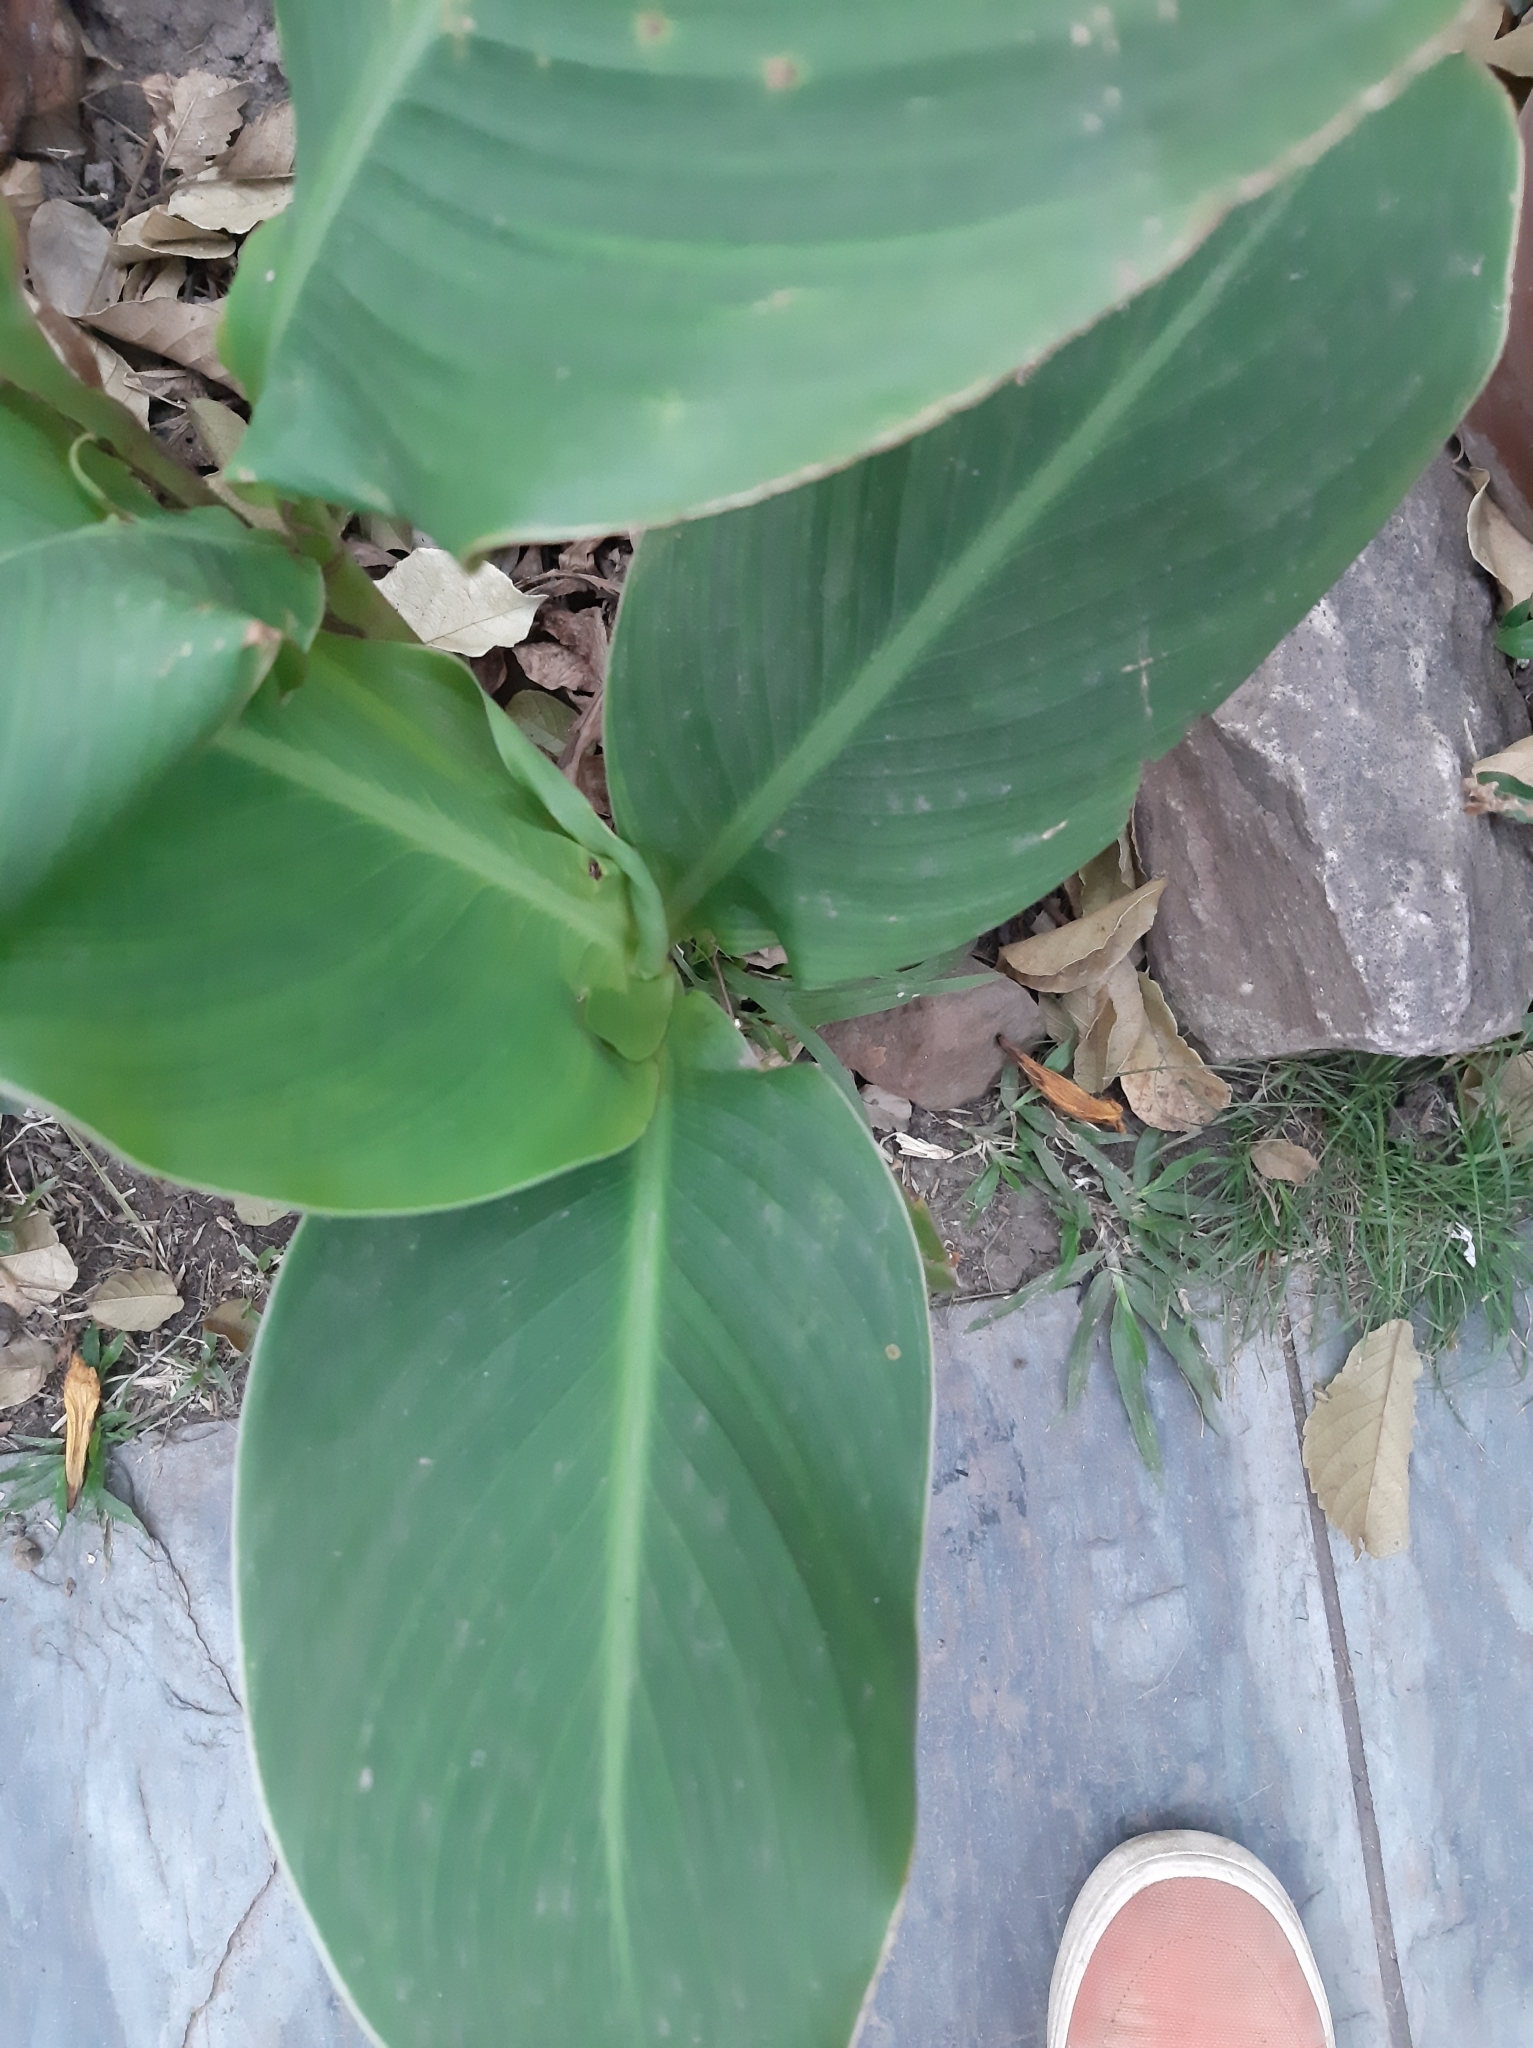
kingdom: Plantae
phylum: Tracheophyta
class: Liliopsida
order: Zingiberales
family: Cannaceae
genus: Canna
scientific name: Canna indica
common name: Indian shot
